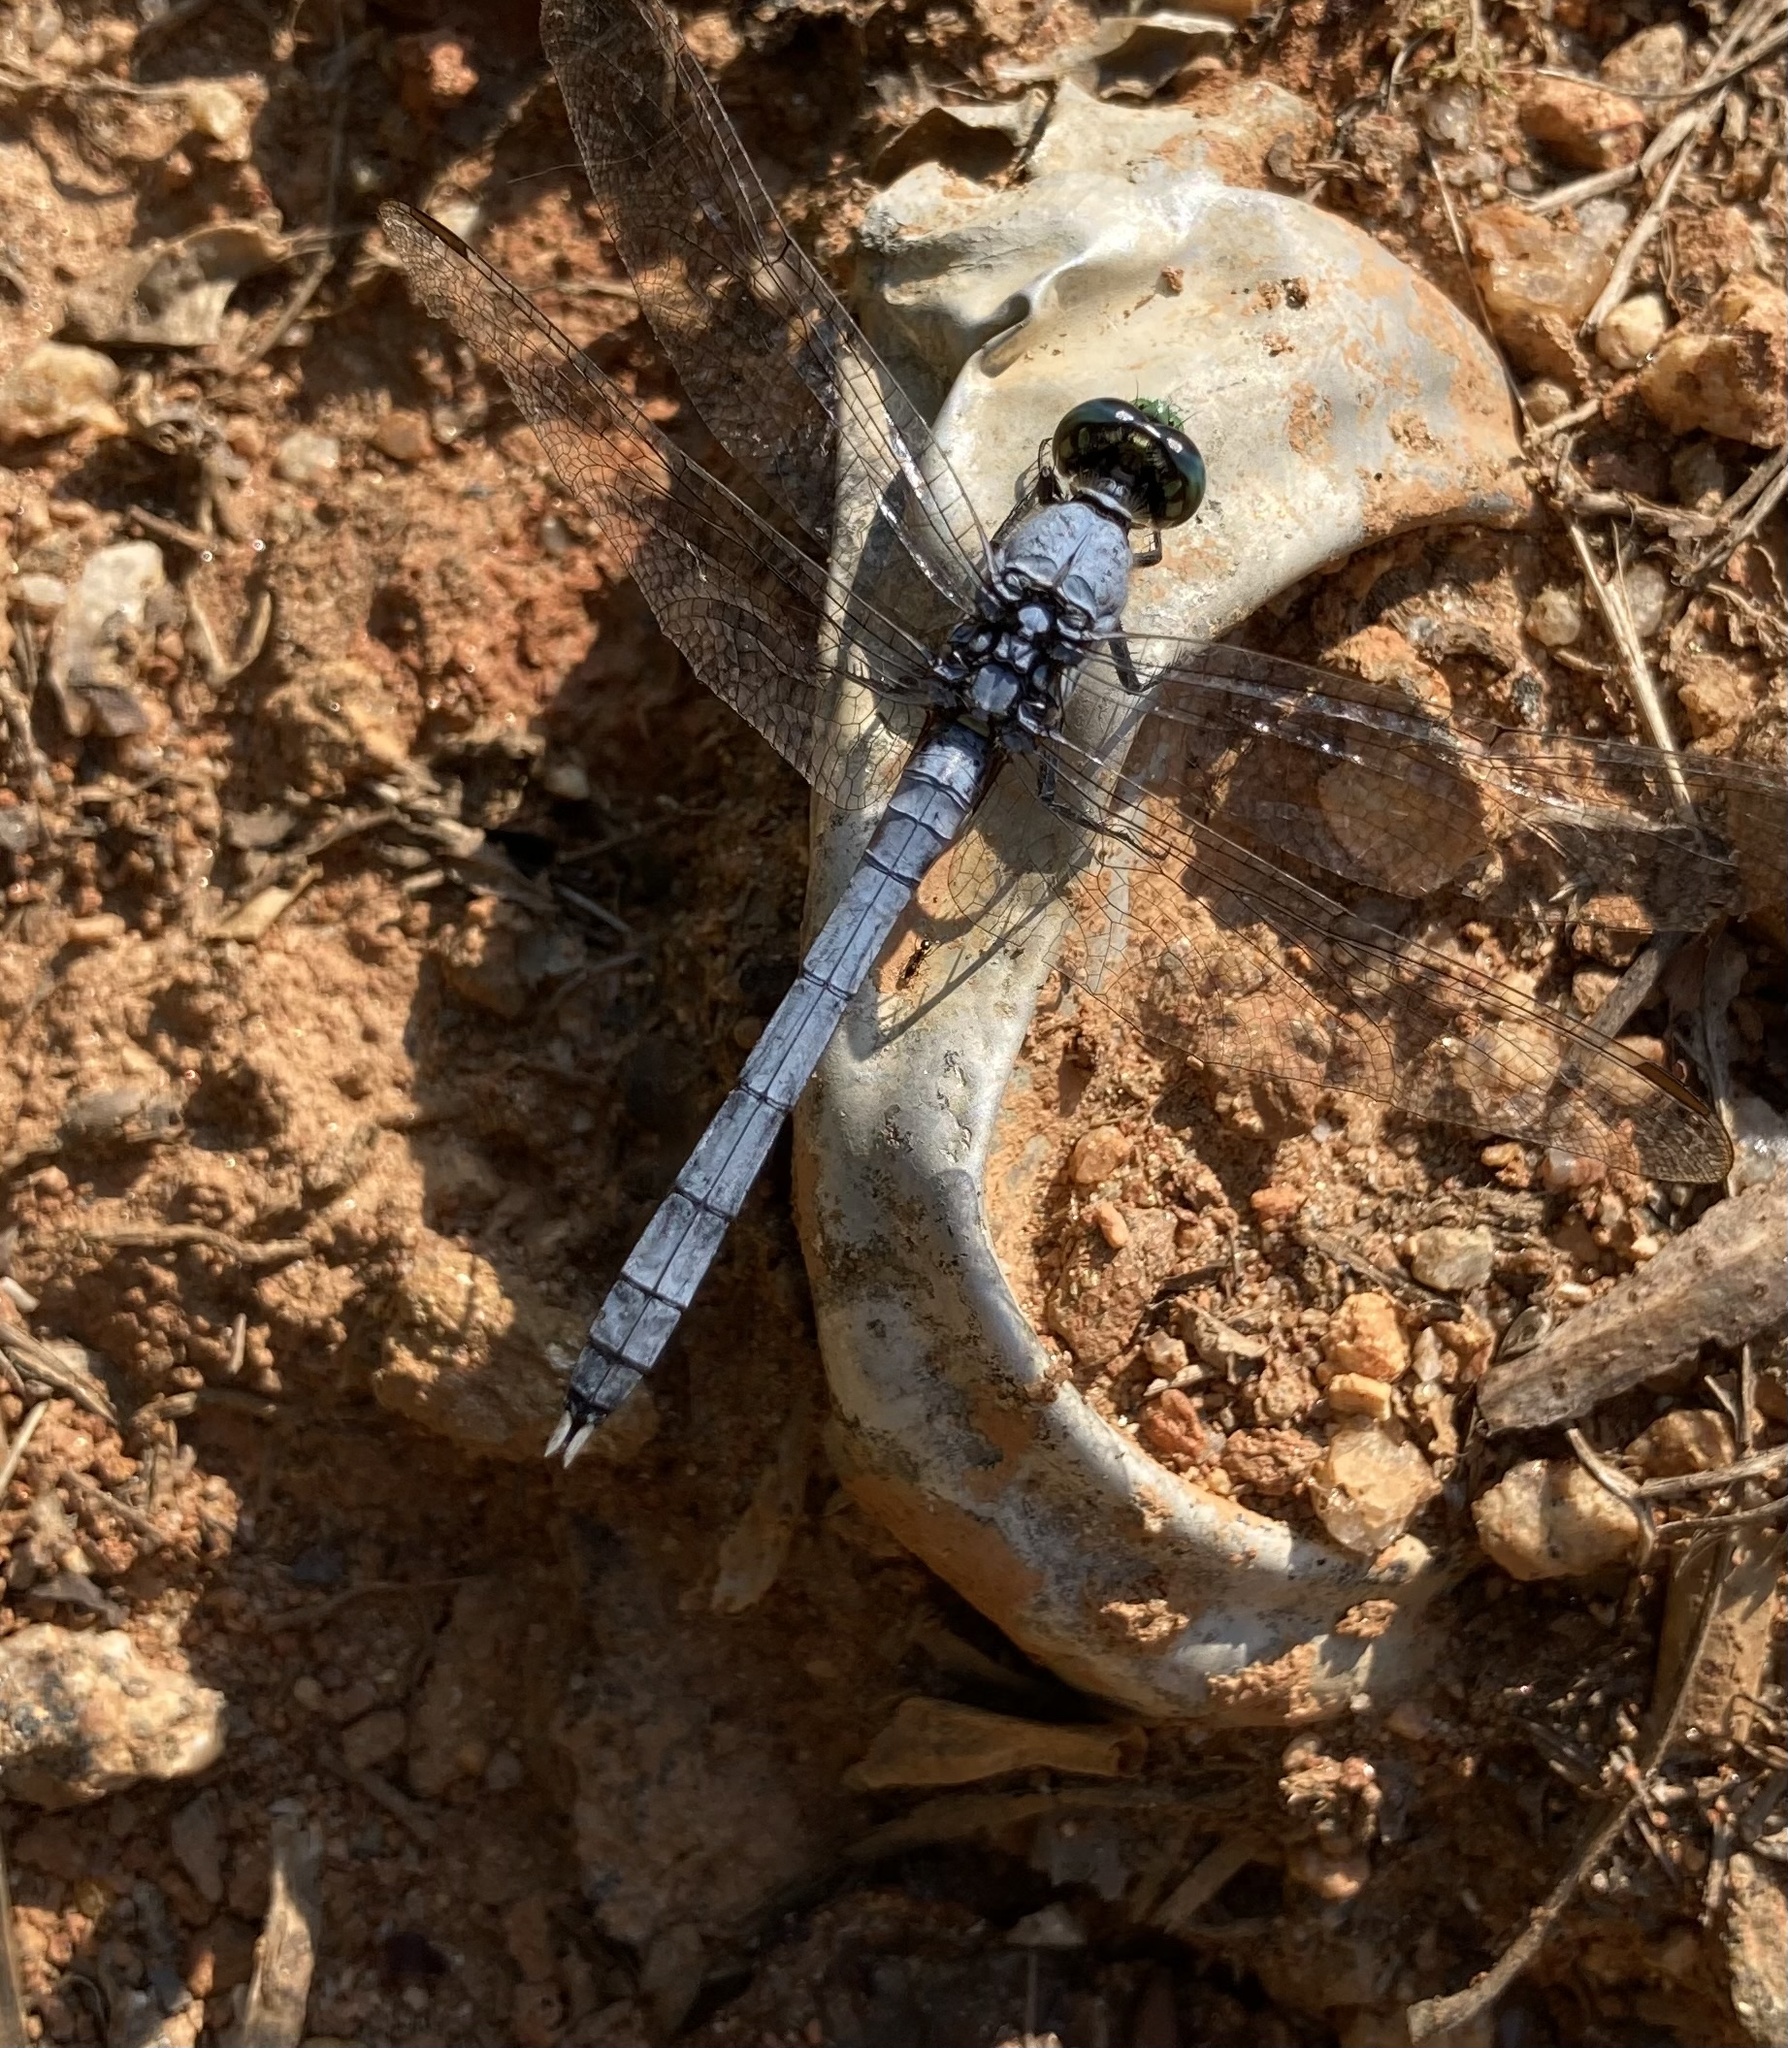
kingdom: Animalia
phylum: Arthropoda
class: Insecta
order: Odonata
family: Libellulidae
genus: Erythemis
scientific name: Erythemis simplicicollis
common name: Eastern pondhawk
